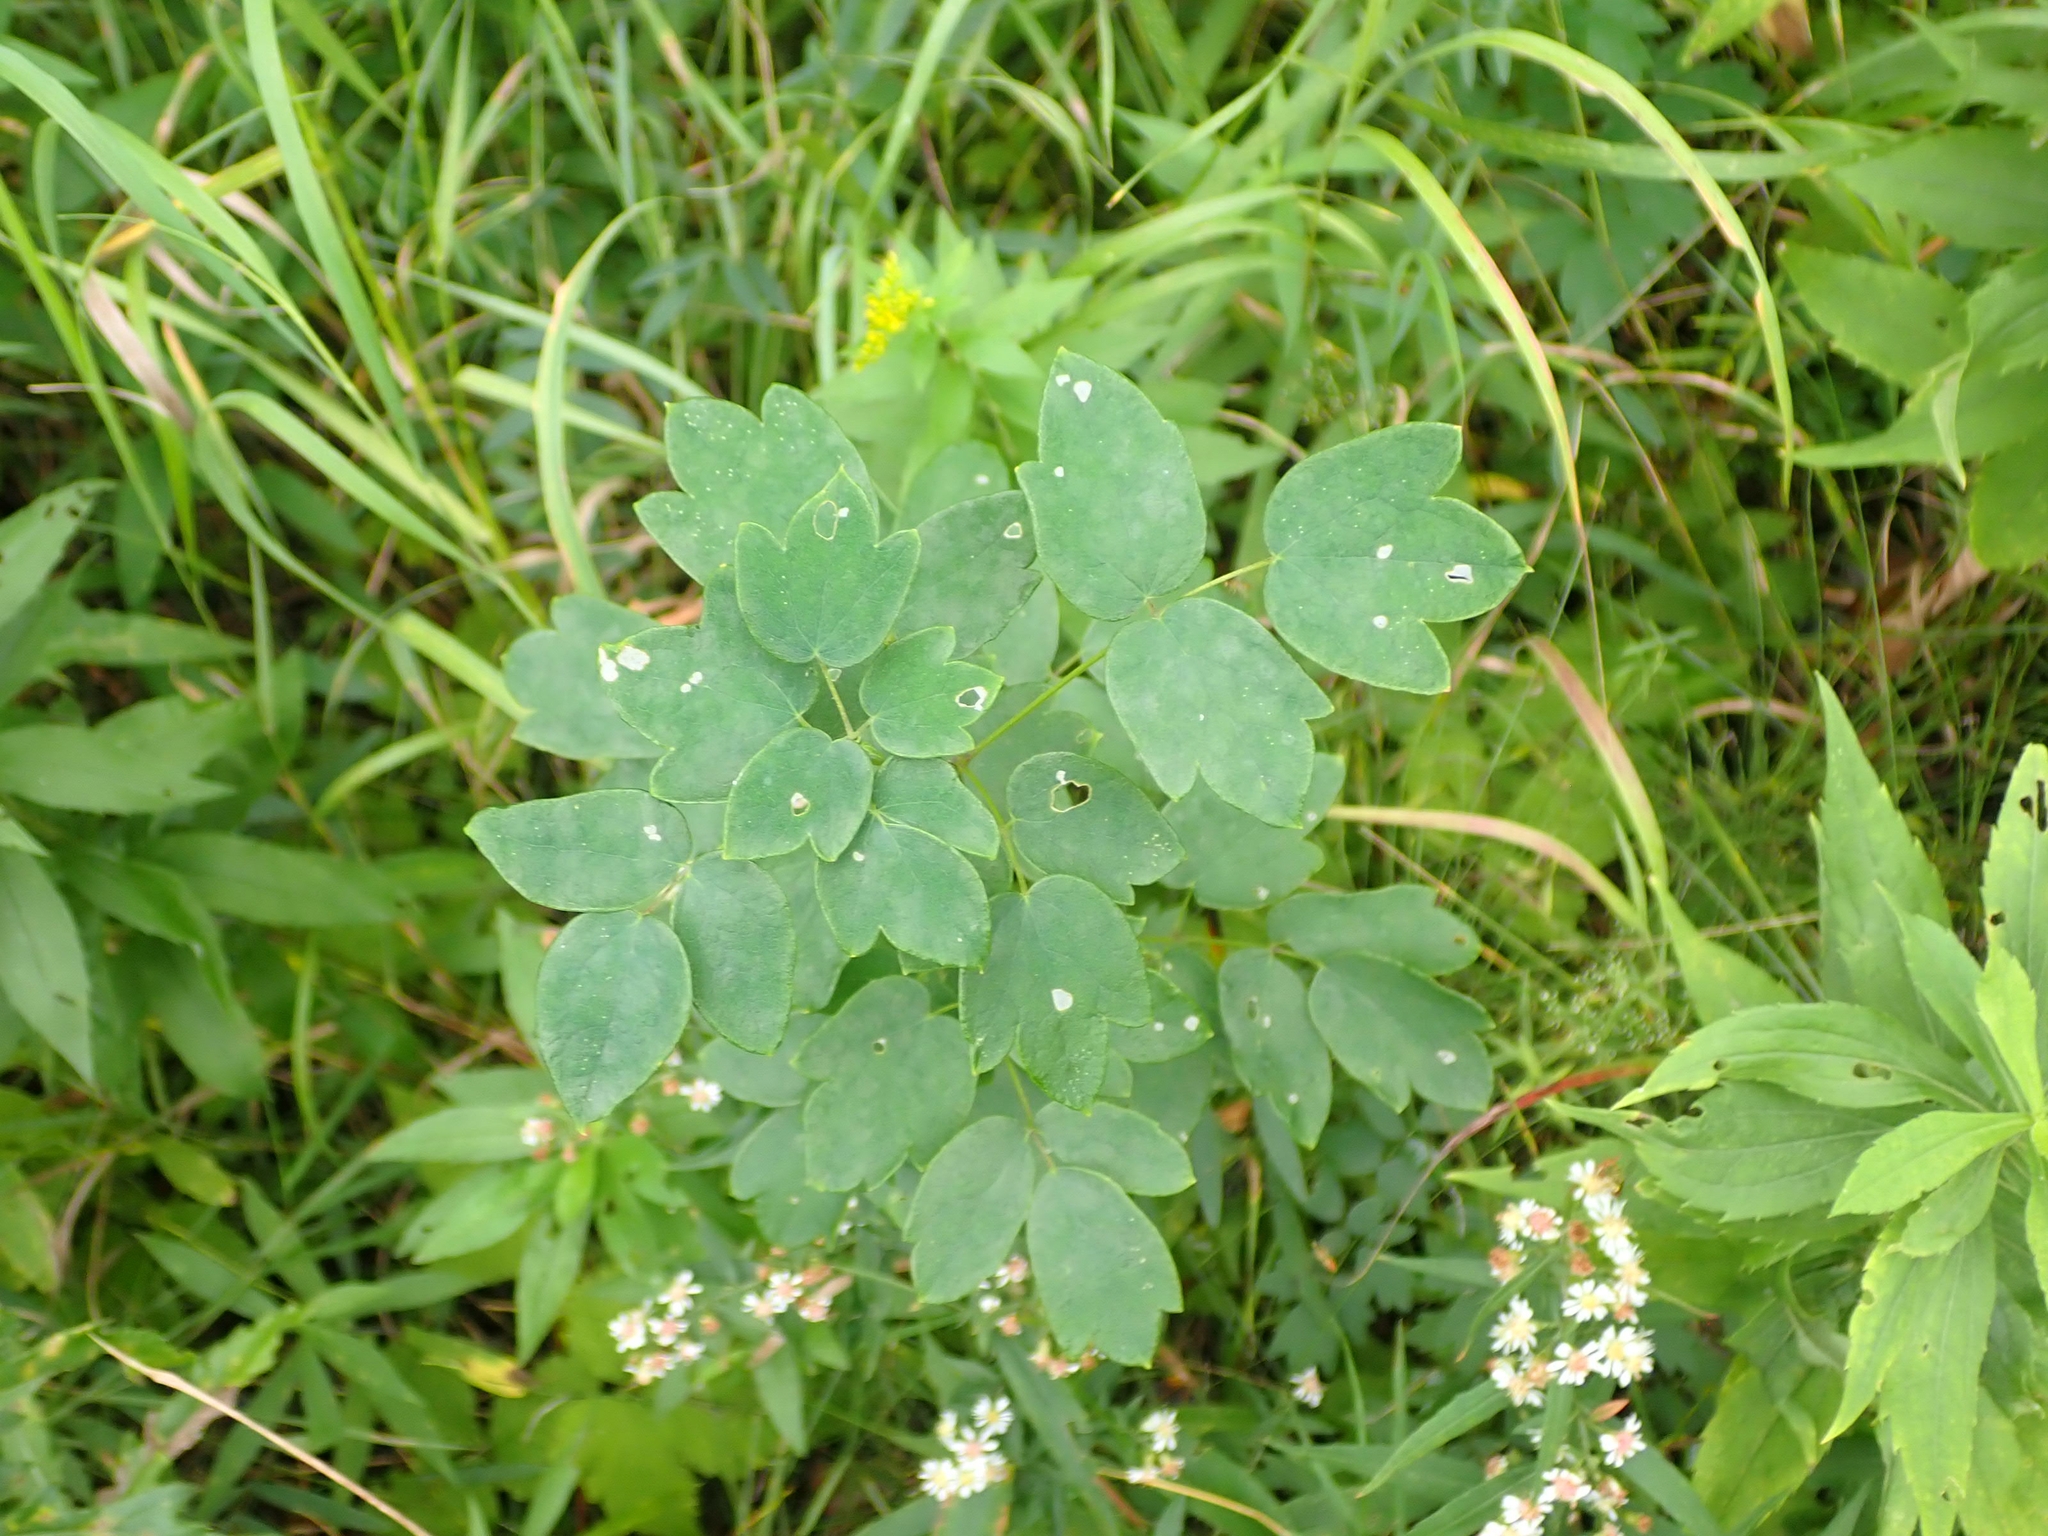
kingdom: Plantae
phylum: Tracheophyta
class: Magnoliopsida
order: Ranunculales
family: Ranunculaceae
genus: Thalictrum
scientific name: Thalictrum dasycarpum
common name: Purple meadow-rue
